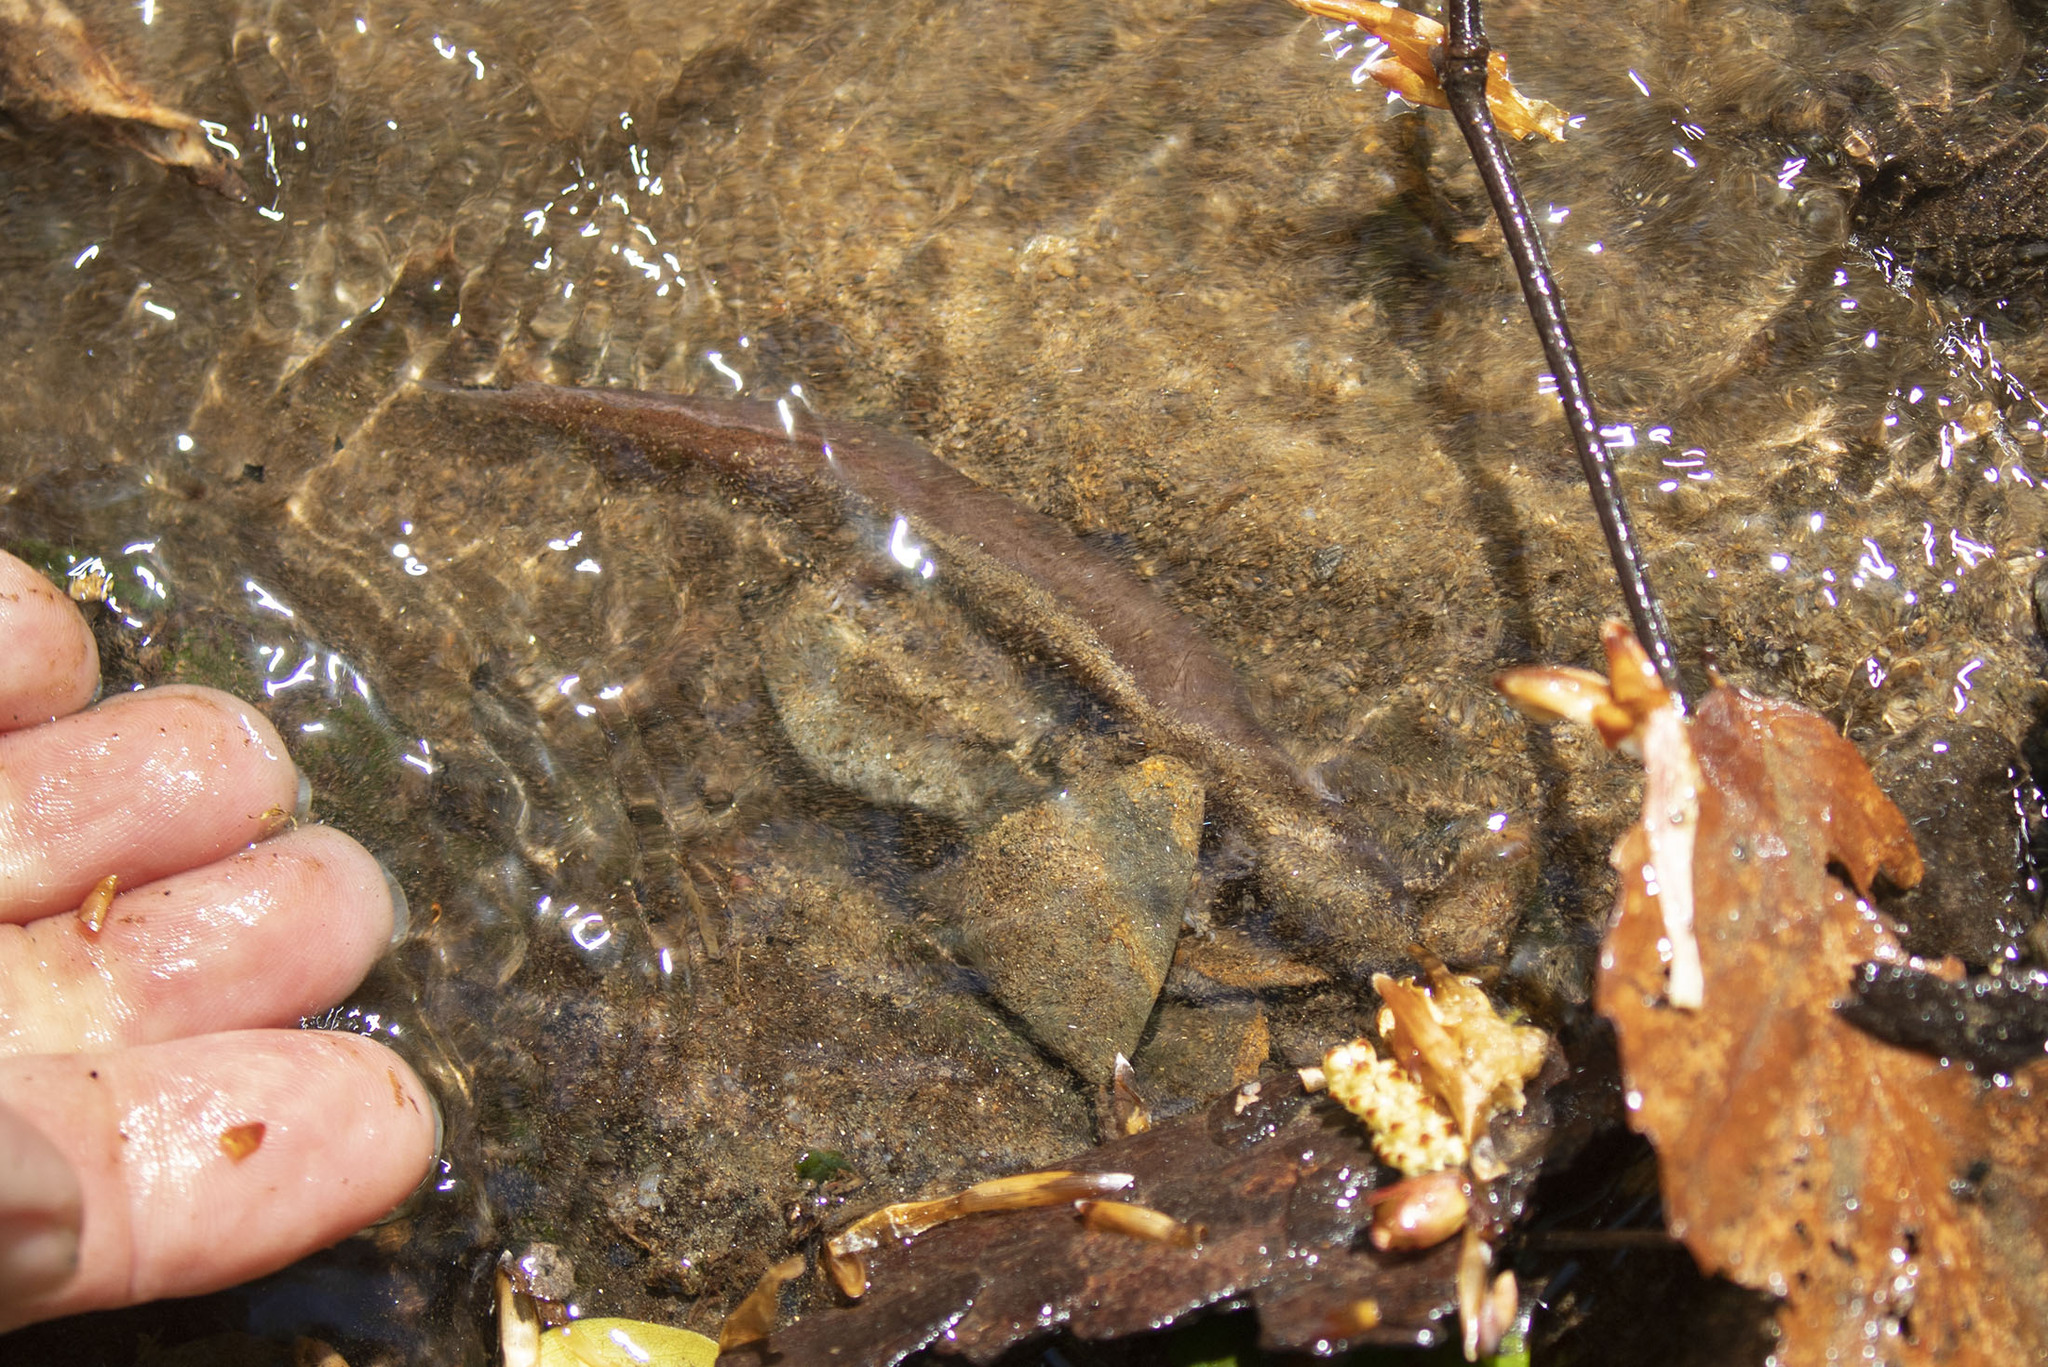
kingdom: Animalia
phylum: Chordata
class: Amphibia
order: Caudata
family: Plethodontidae
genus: Gyrinophilus
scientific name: Gyrinophilus porphyriticus
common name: Spring salamander
